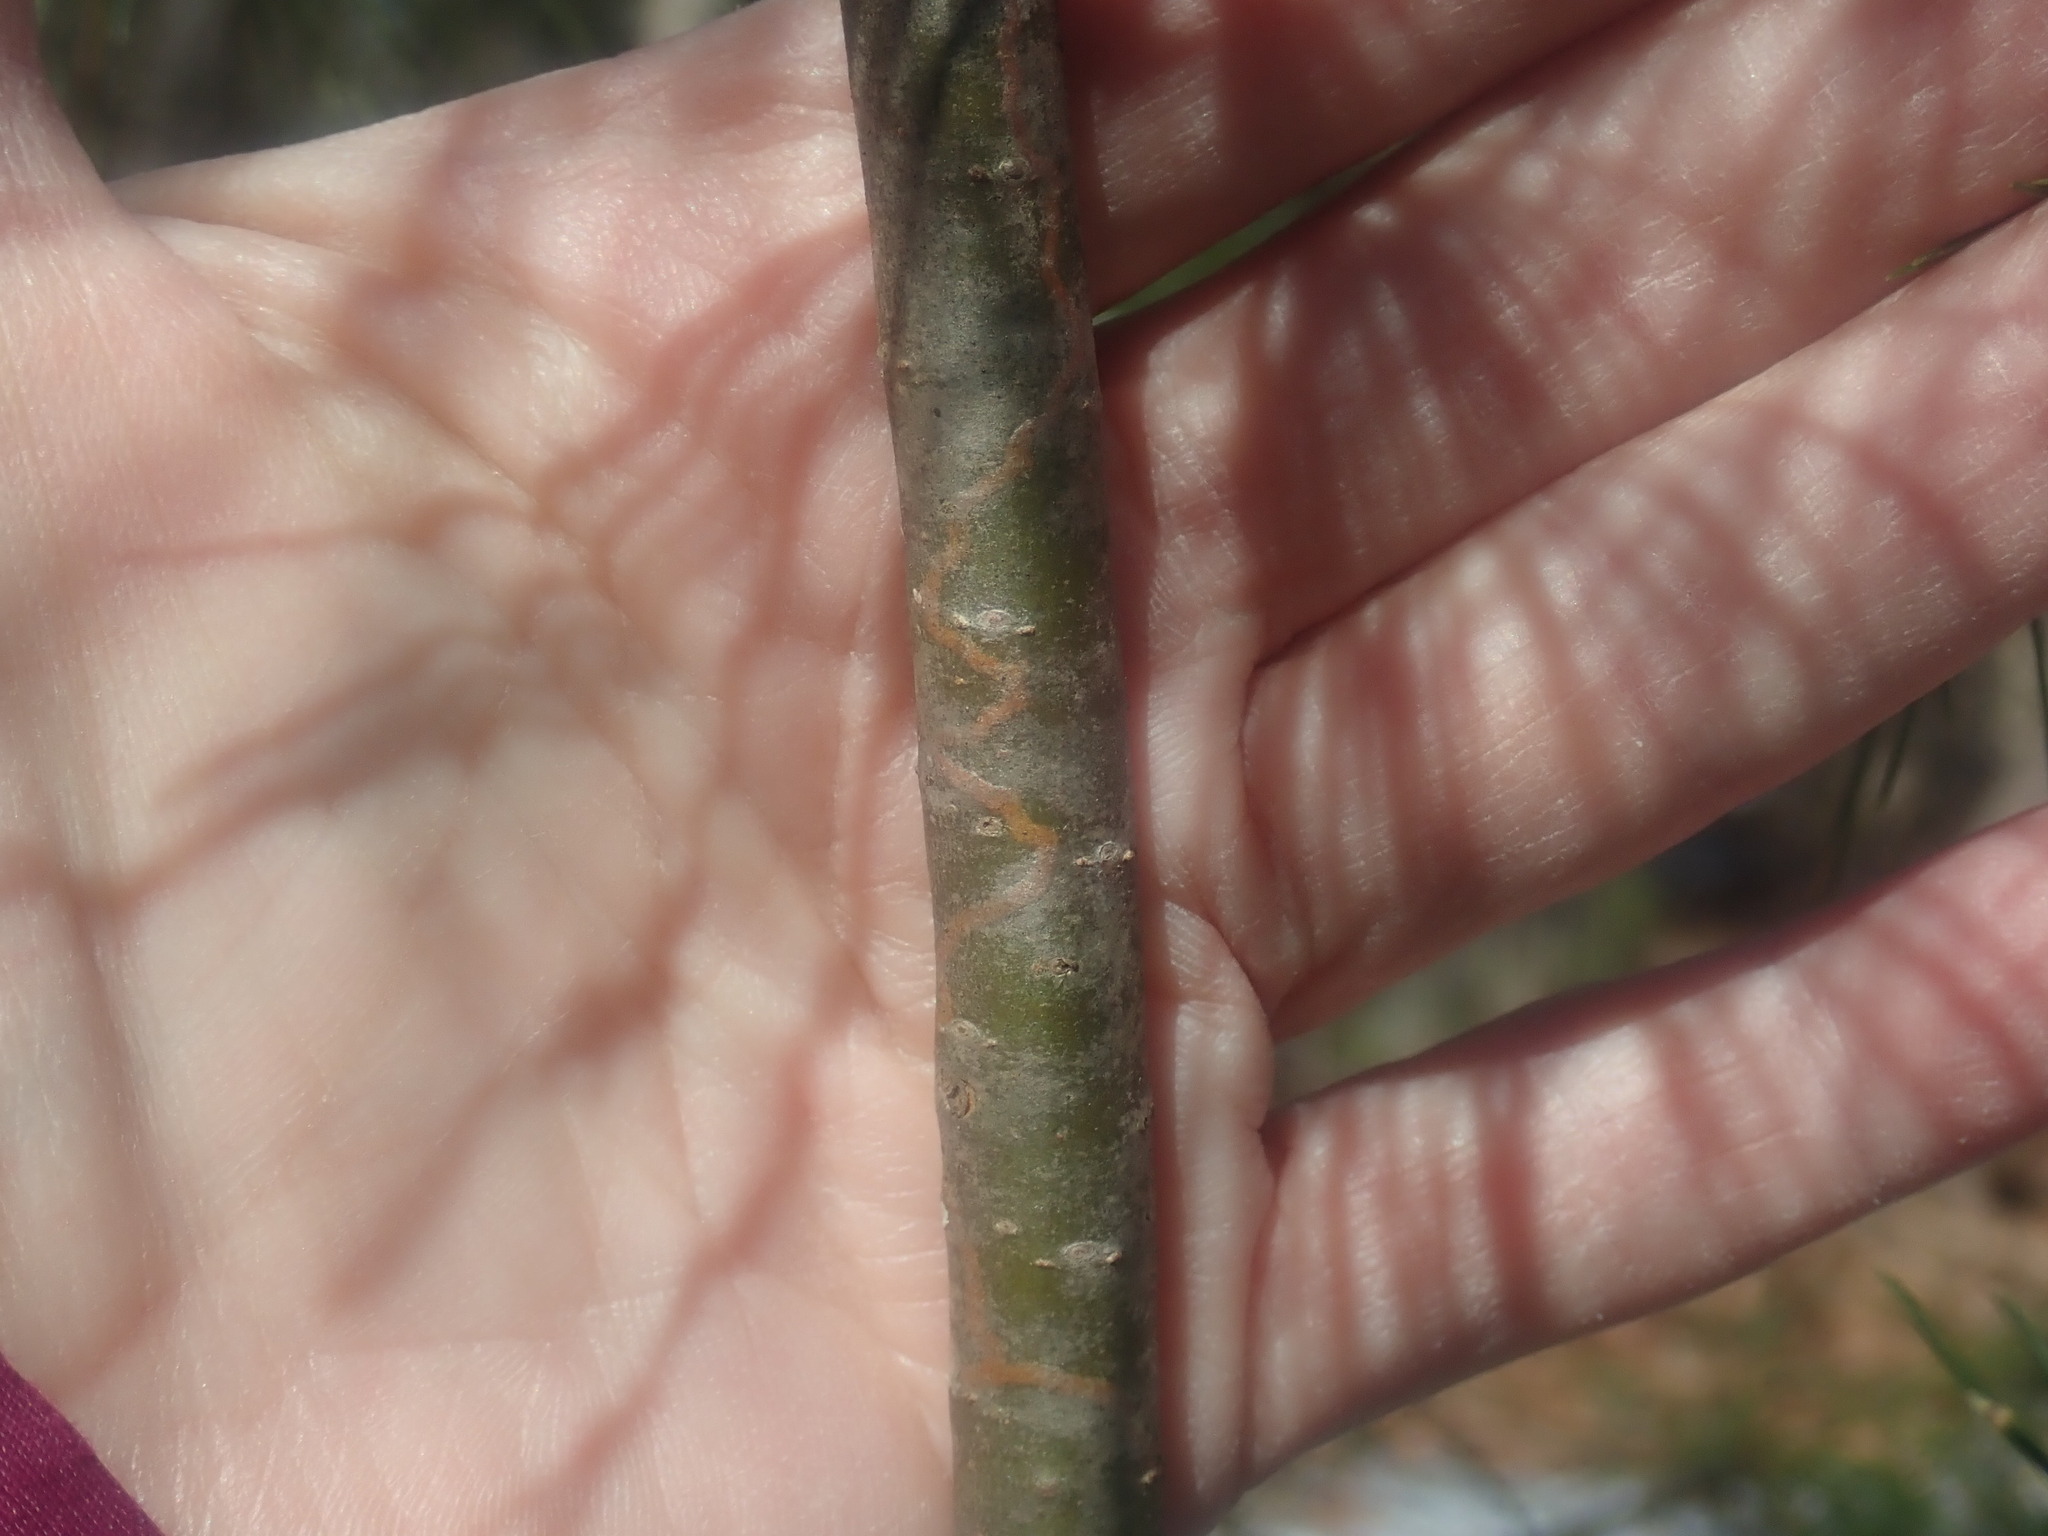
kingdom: Animalia
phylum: Arthropoda
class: Insecta
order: Lepidoptera
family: Gracillariidae
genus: Marmara
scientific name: Marmara fasciella
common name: White pine barkminer moth
